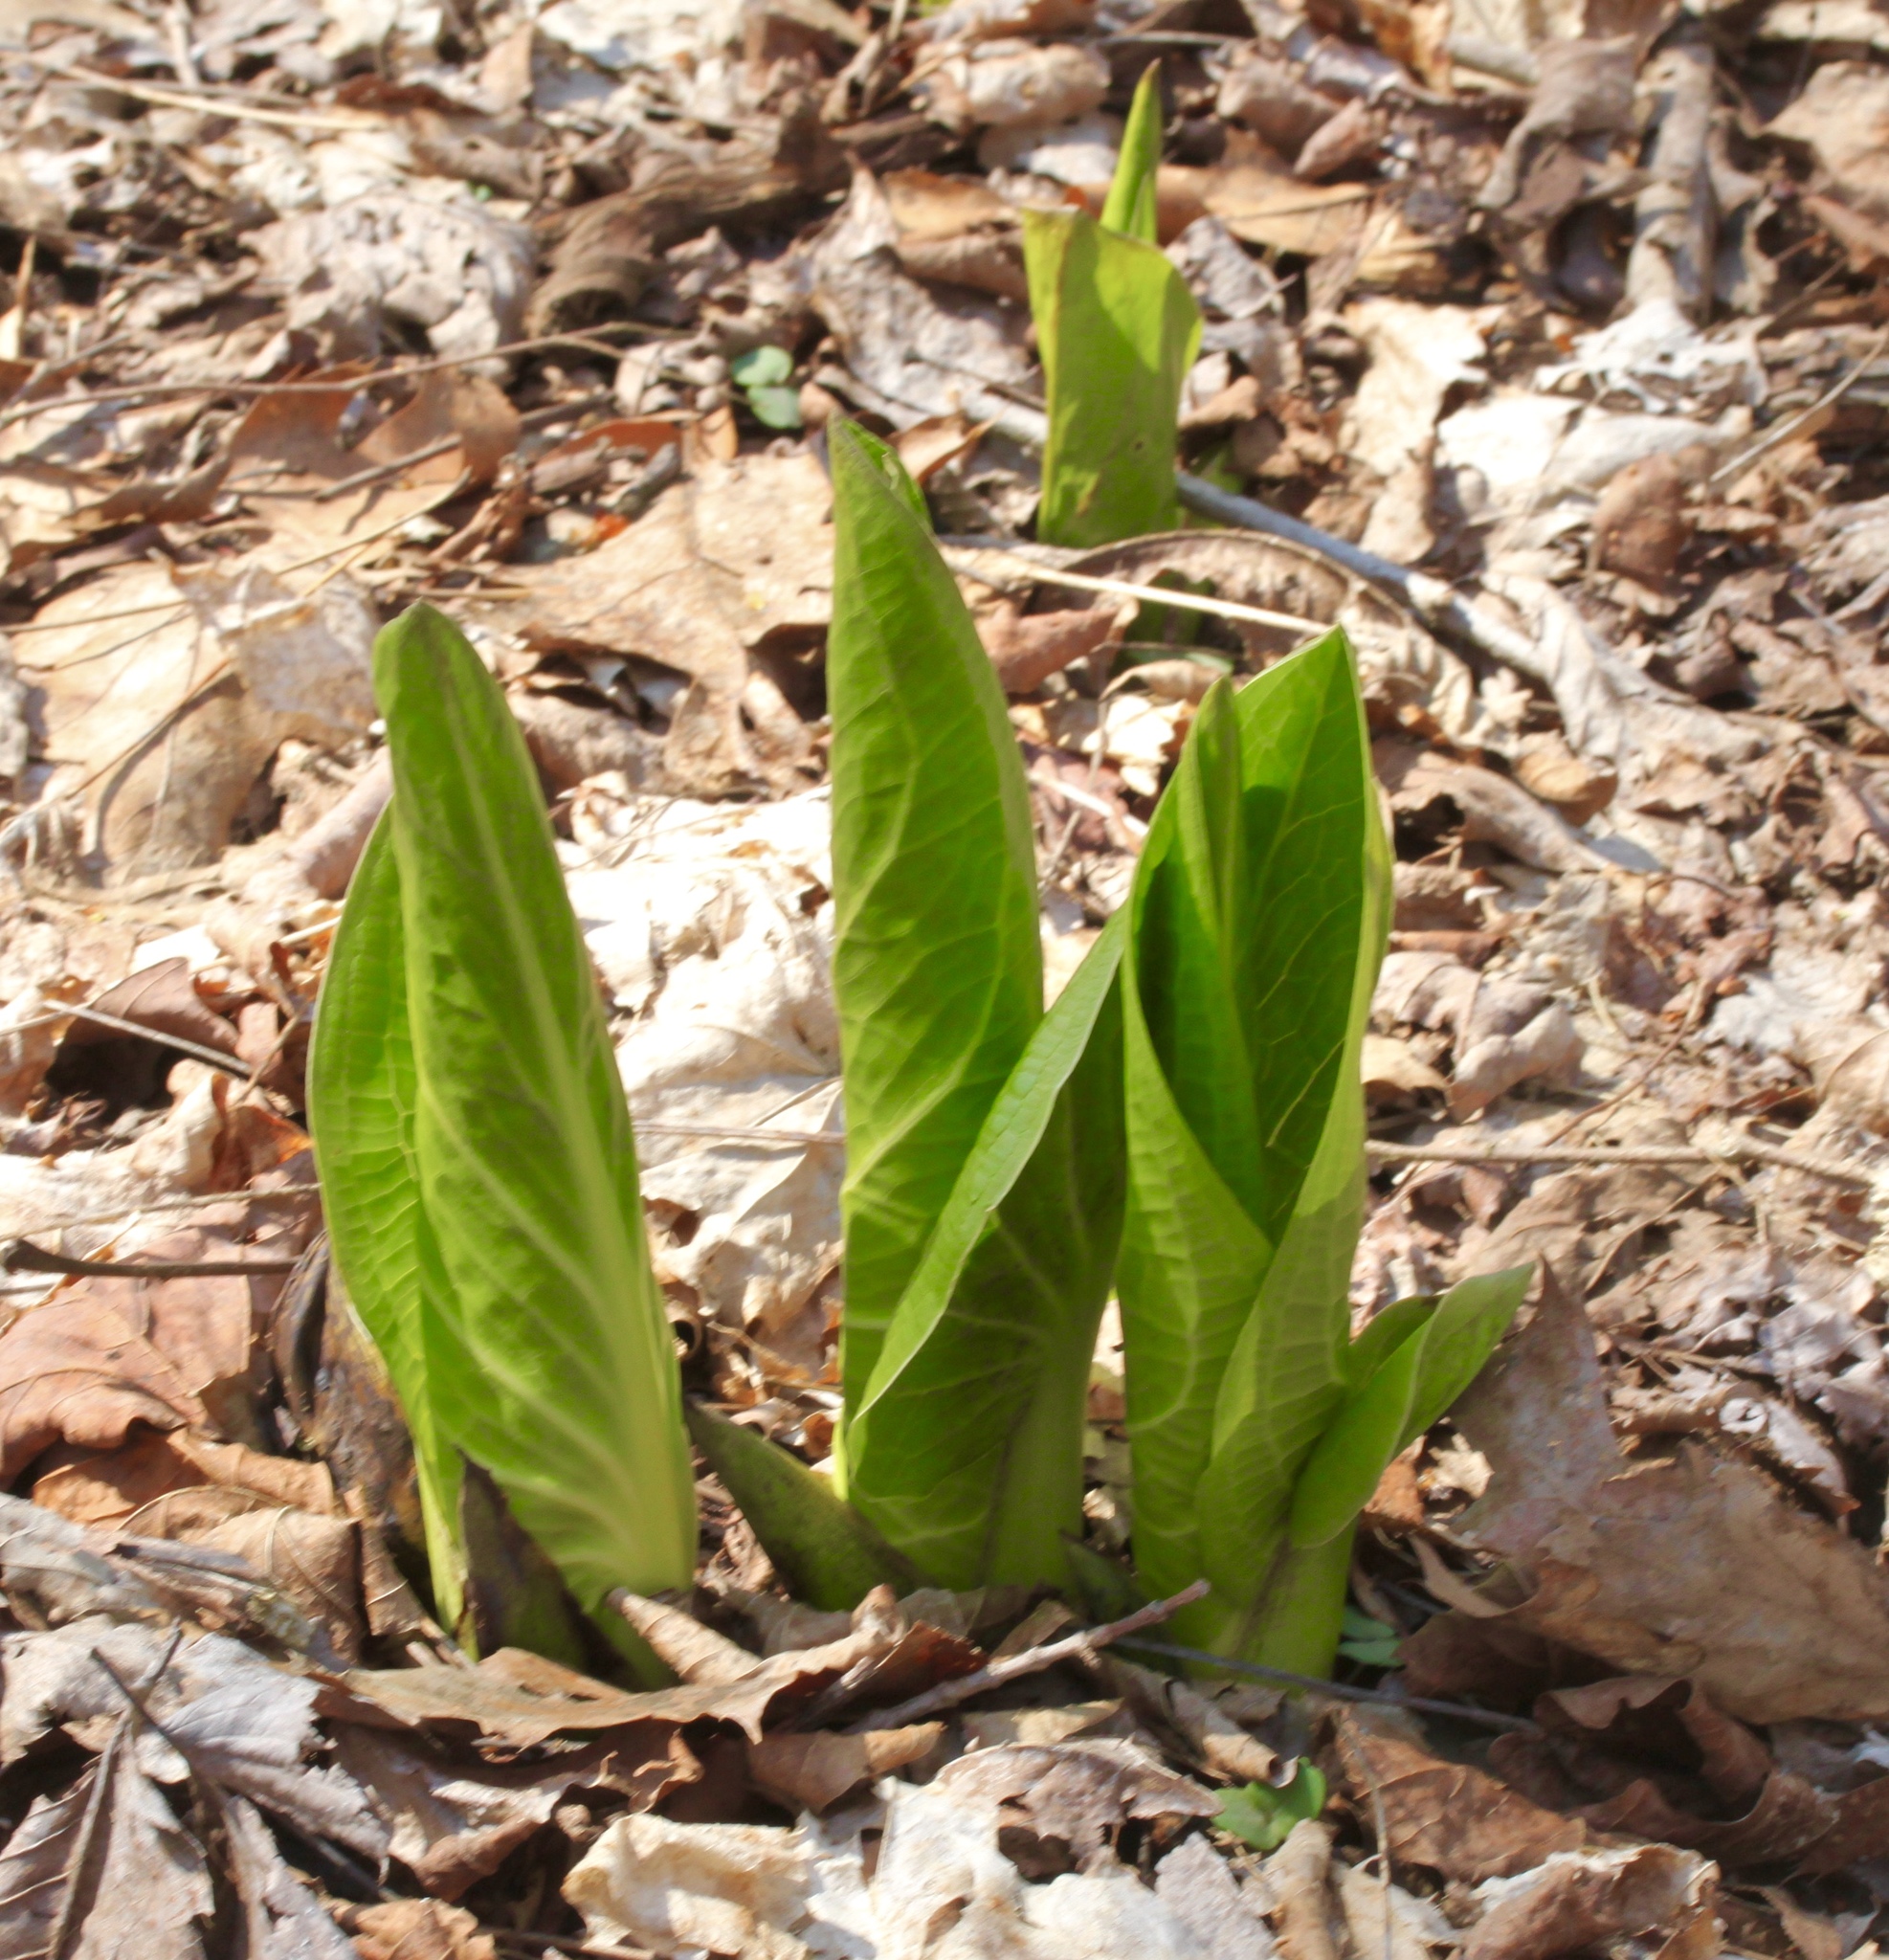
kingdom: Plantae
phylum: Tracheophyta
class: Liliopsida
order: Alismatales
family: Araceae
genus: Symplocarpus
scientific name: Symplocarpus foetidus
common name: Eastern skunk cabbage
